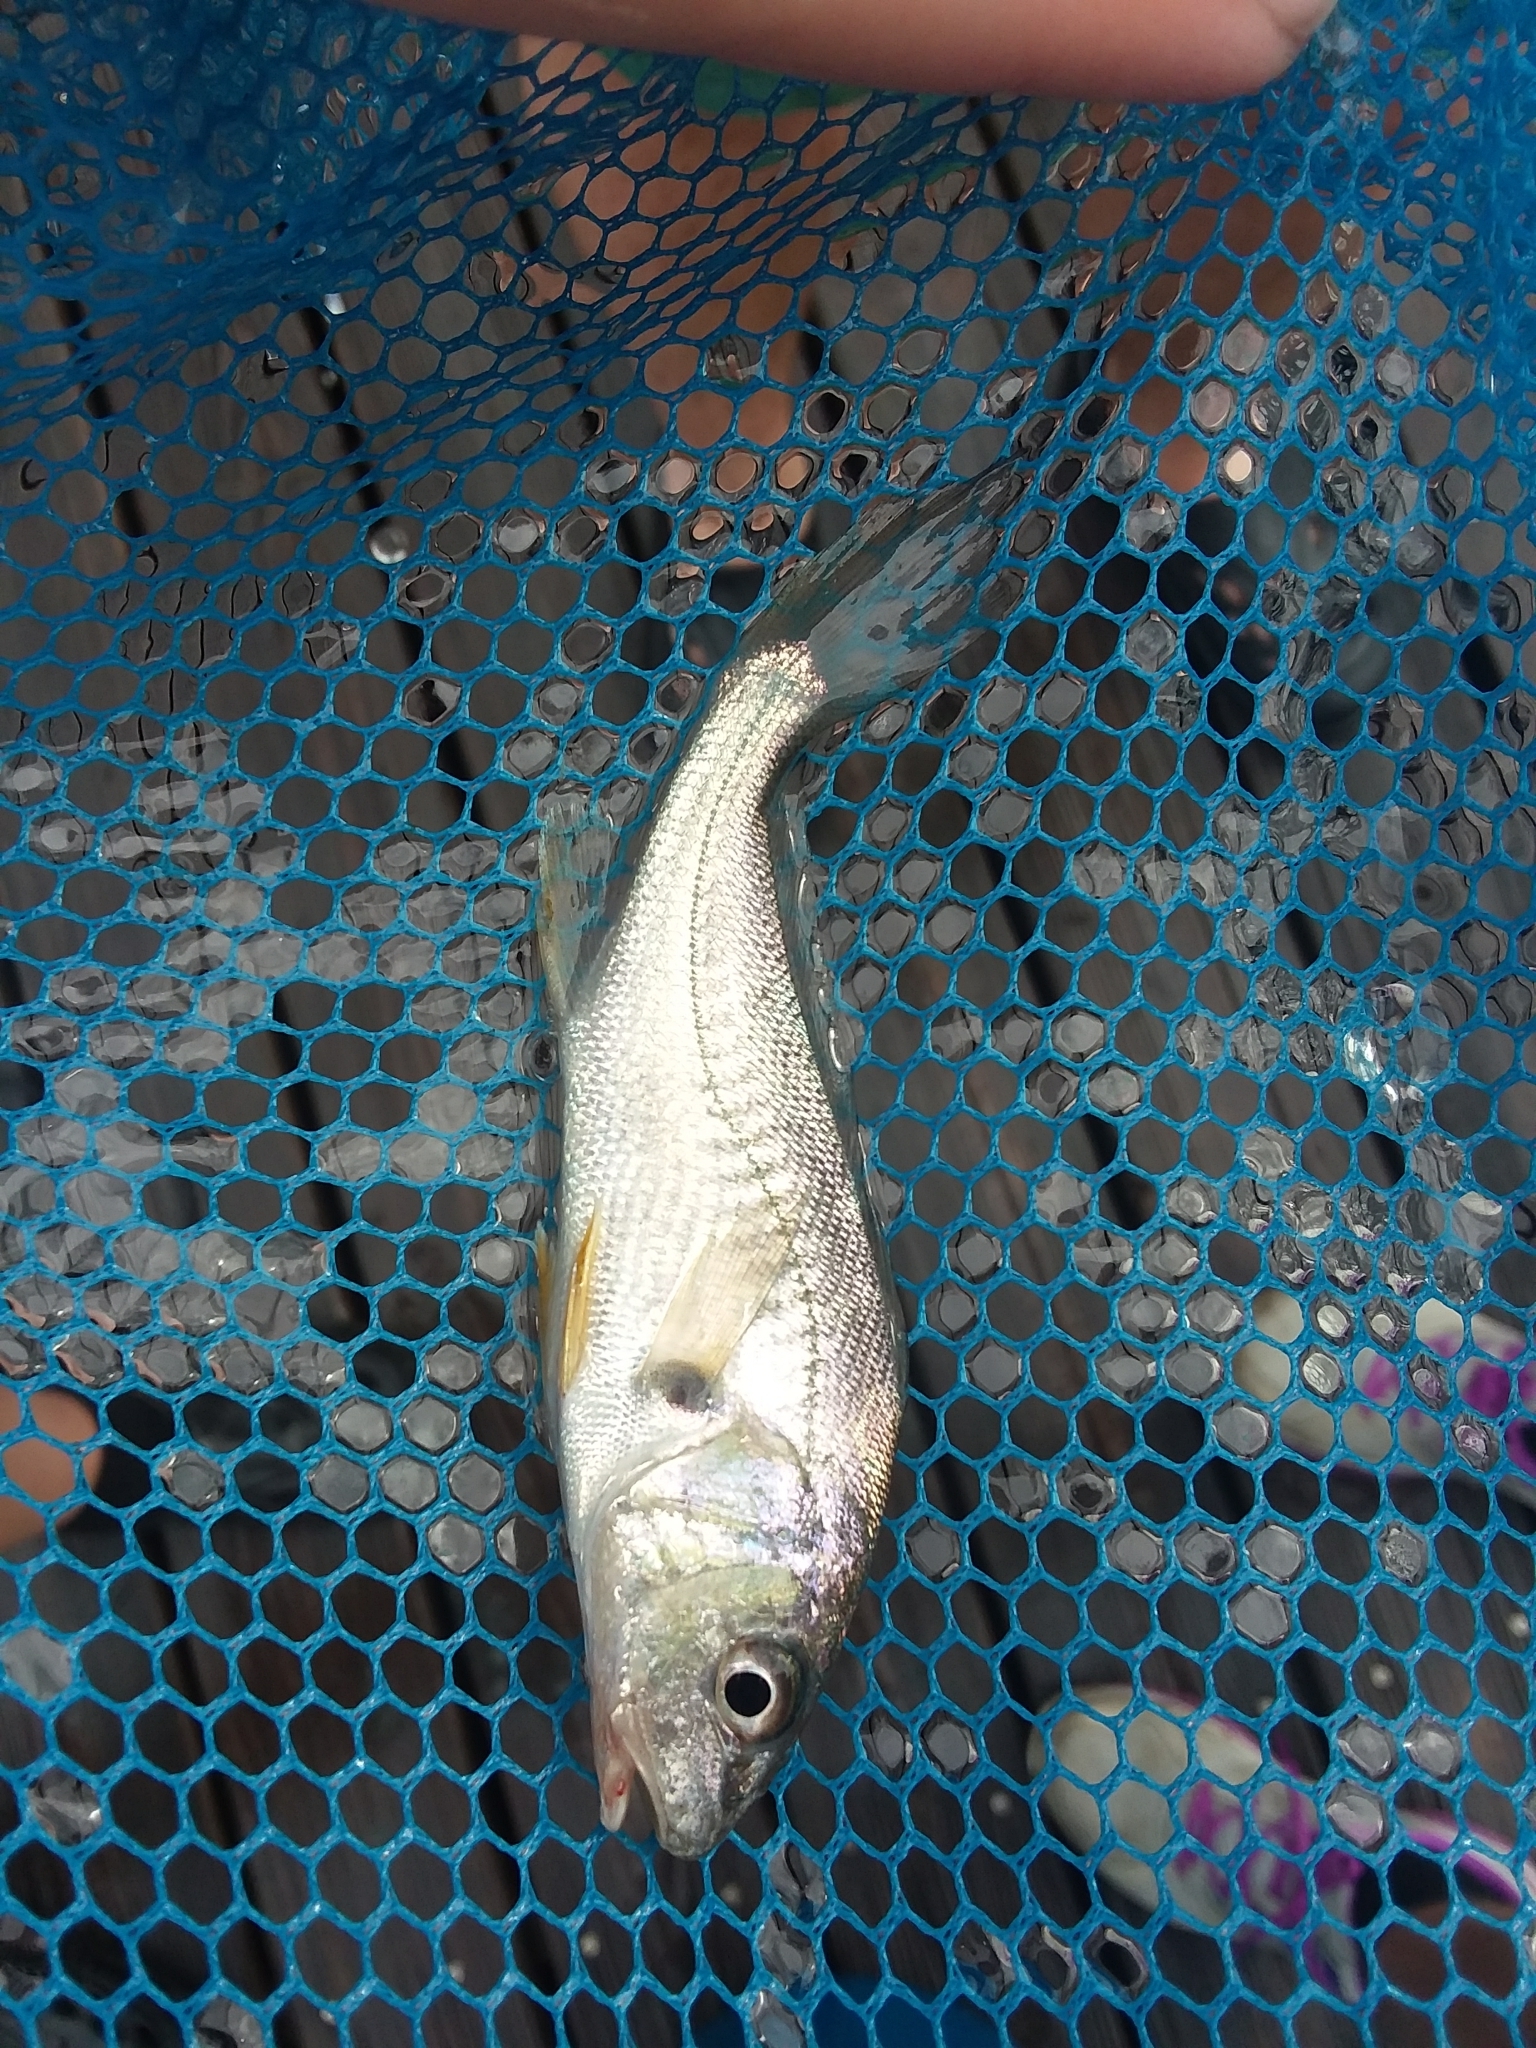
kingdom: Animalia
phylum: Chordata
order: Perciformes
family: Sciaenidae
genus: Micropogonias
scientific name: Micropogonias undulatus
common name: Atlantic croaker
